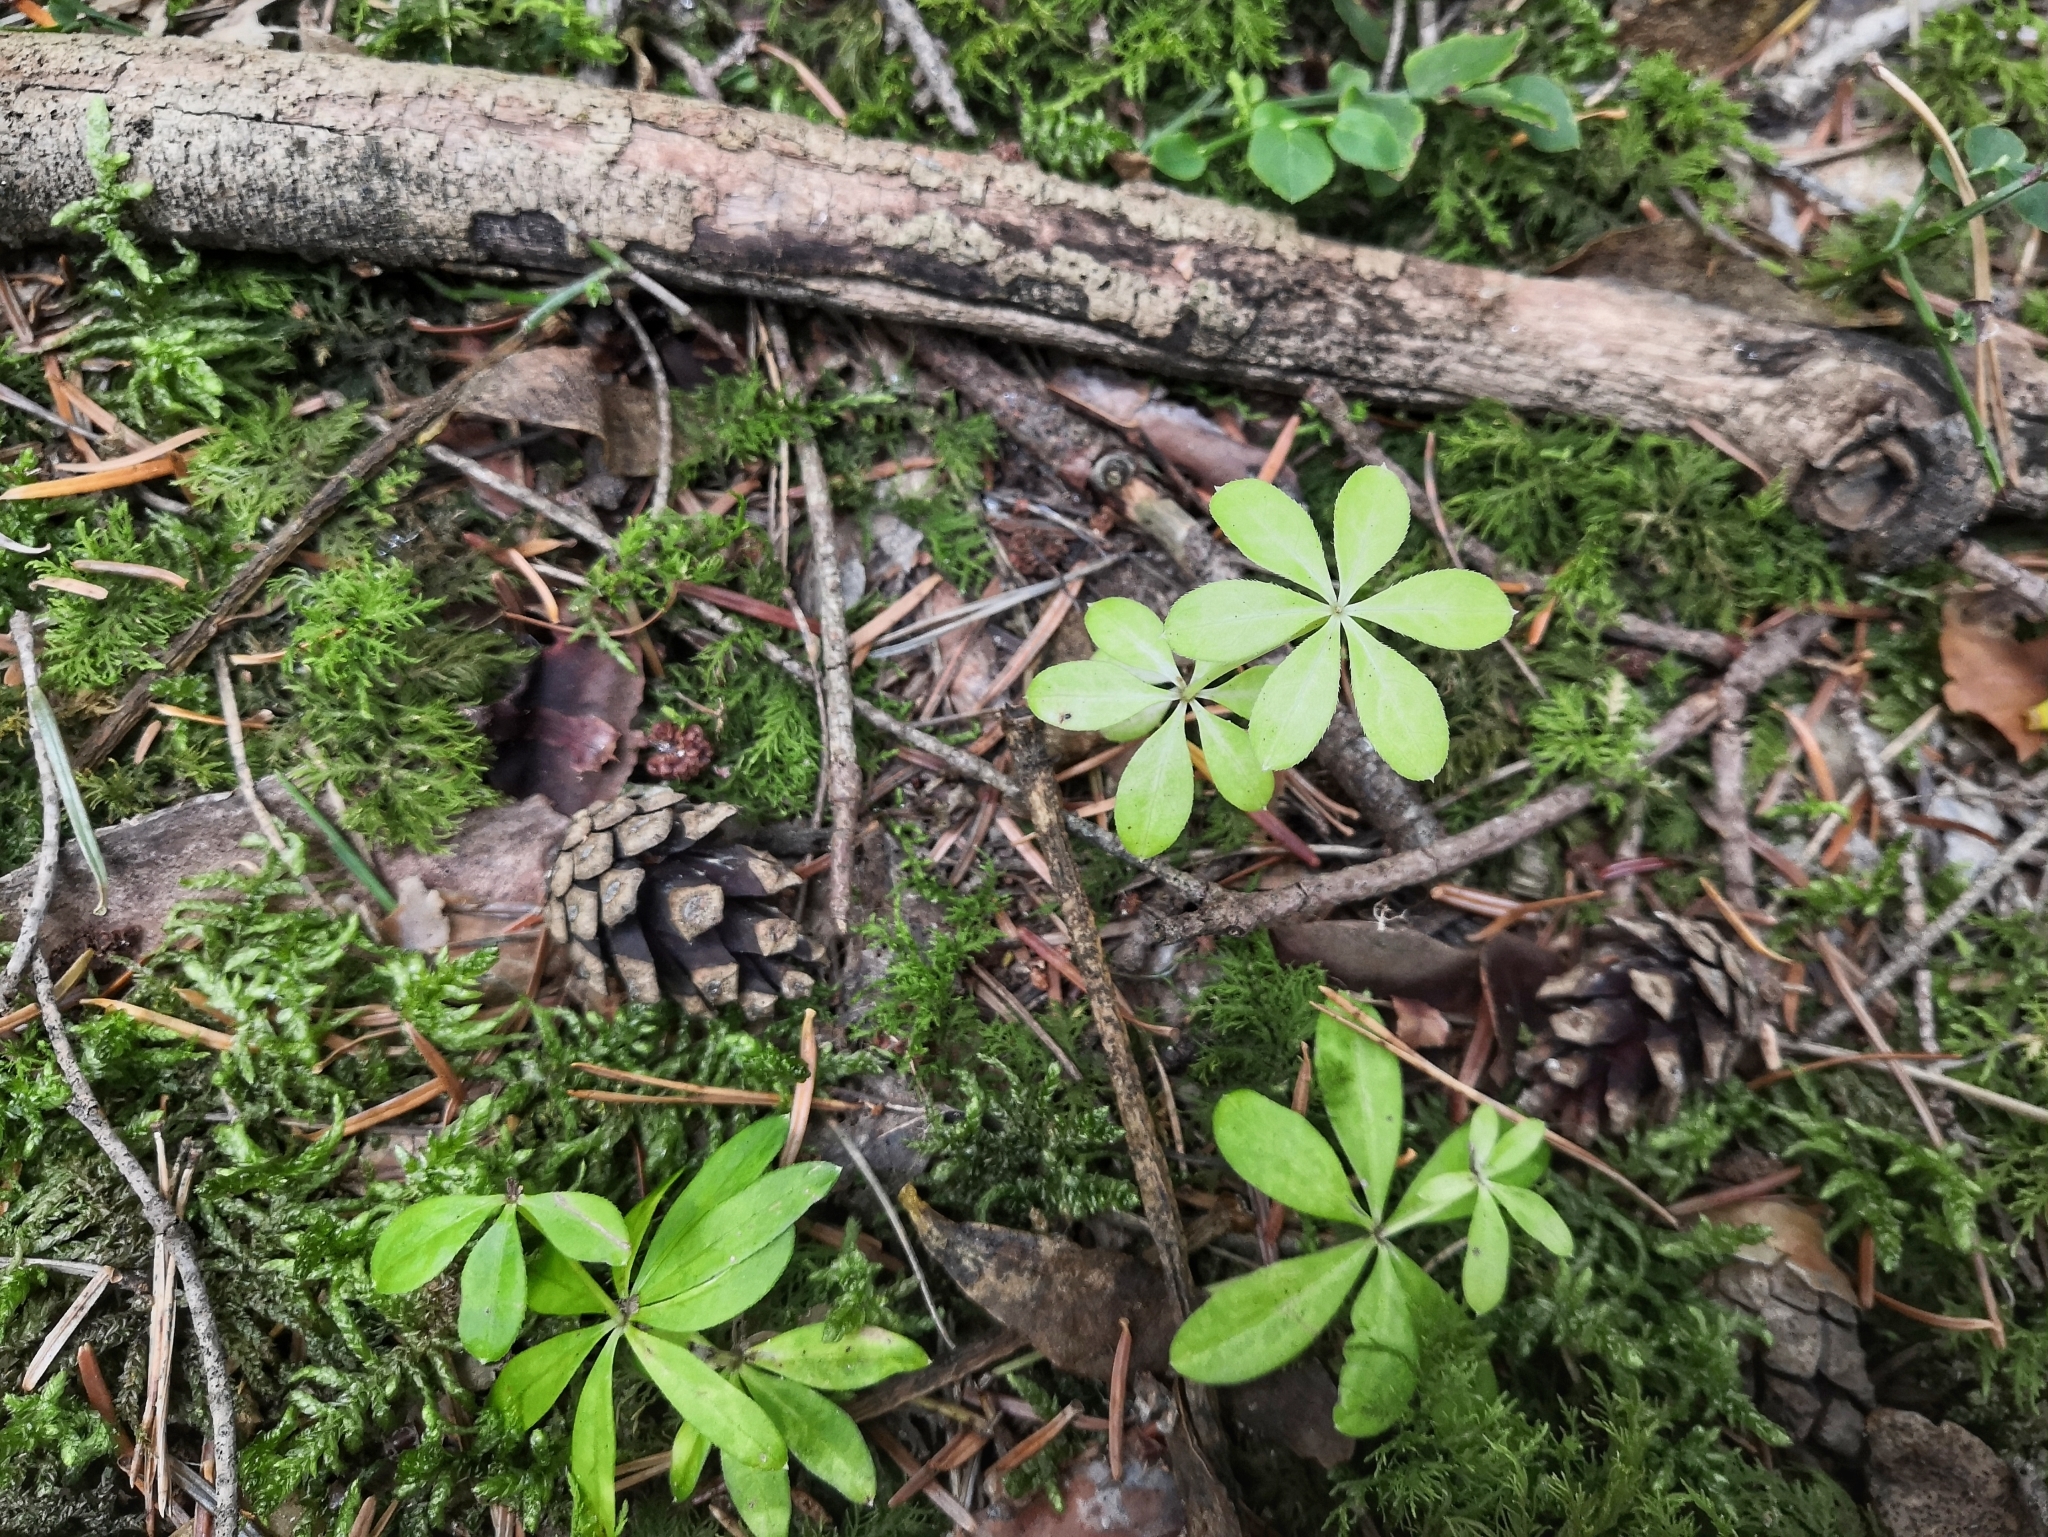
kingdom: Plantae
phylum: Tracheophyta
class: Magnoliopsida
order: Gentianales
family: Rubiaceae
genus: Galium
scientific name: Galium odoratum
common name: Sweet woodruff
